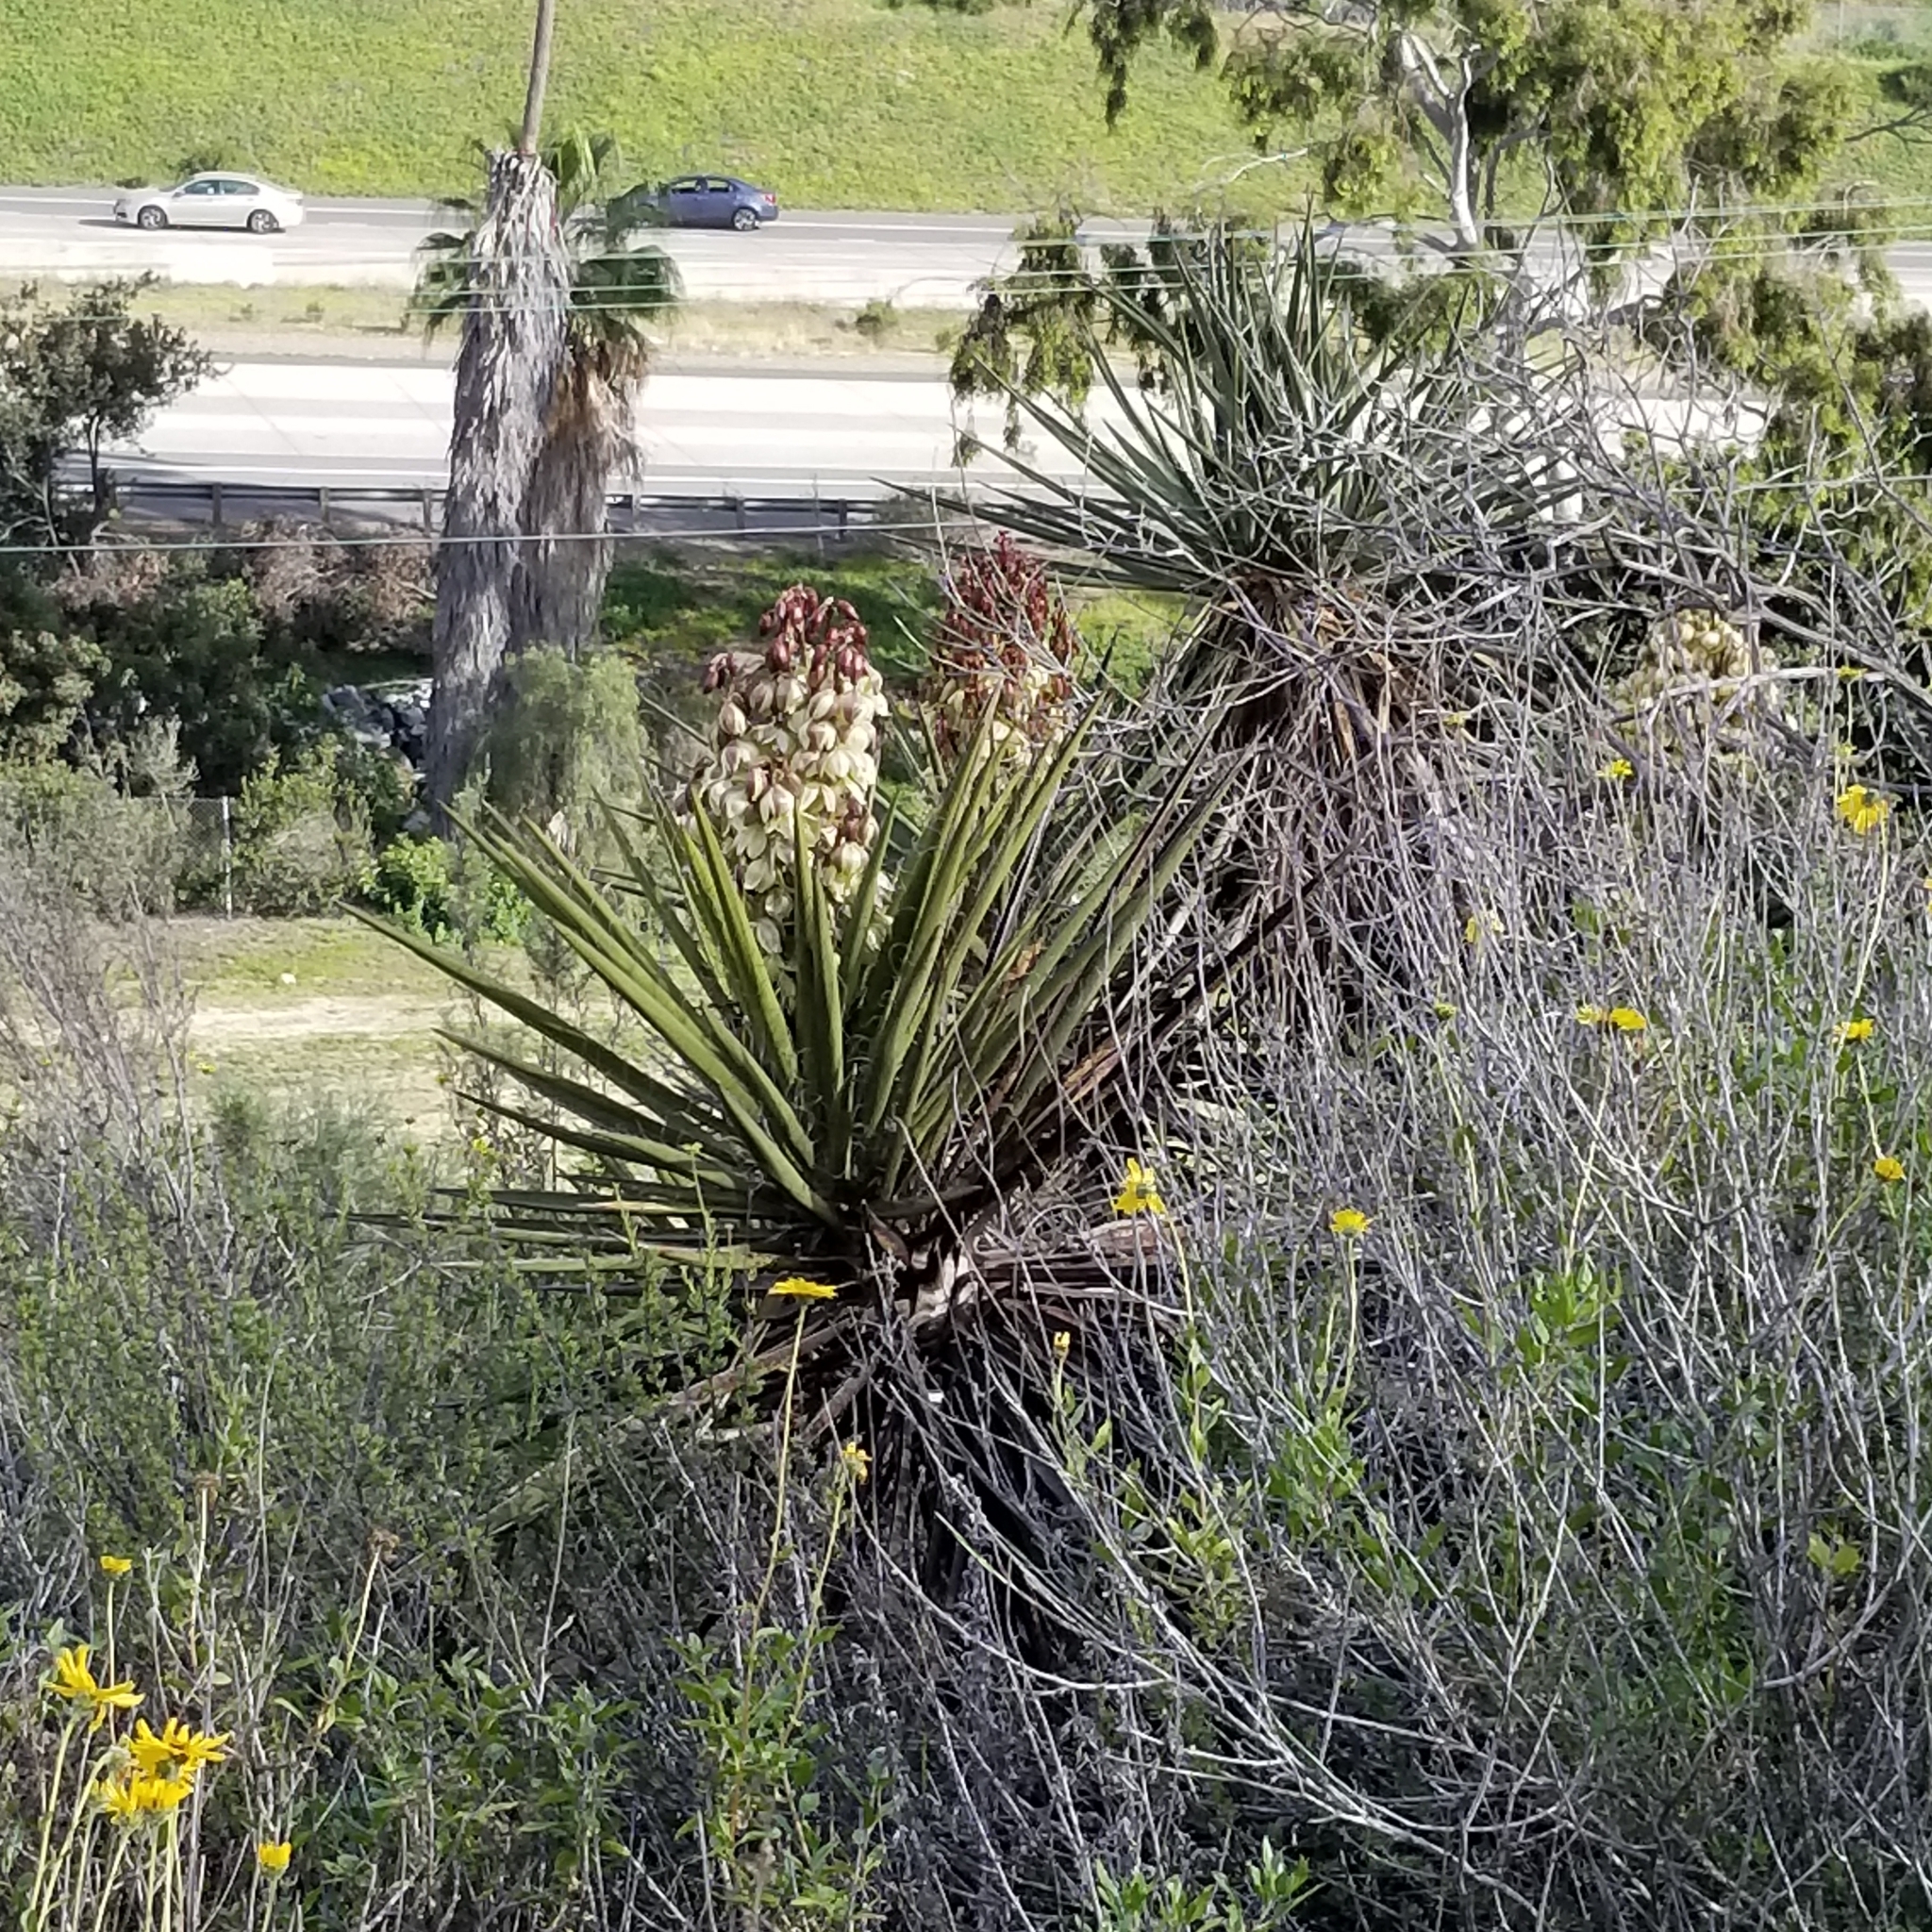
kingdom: Plantae
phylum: Tracheophyta
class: Liliopsida
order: Asparagales
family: Asparagaceae
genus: Yucca
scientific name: Yucca schidigera
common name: Mojave yucca
